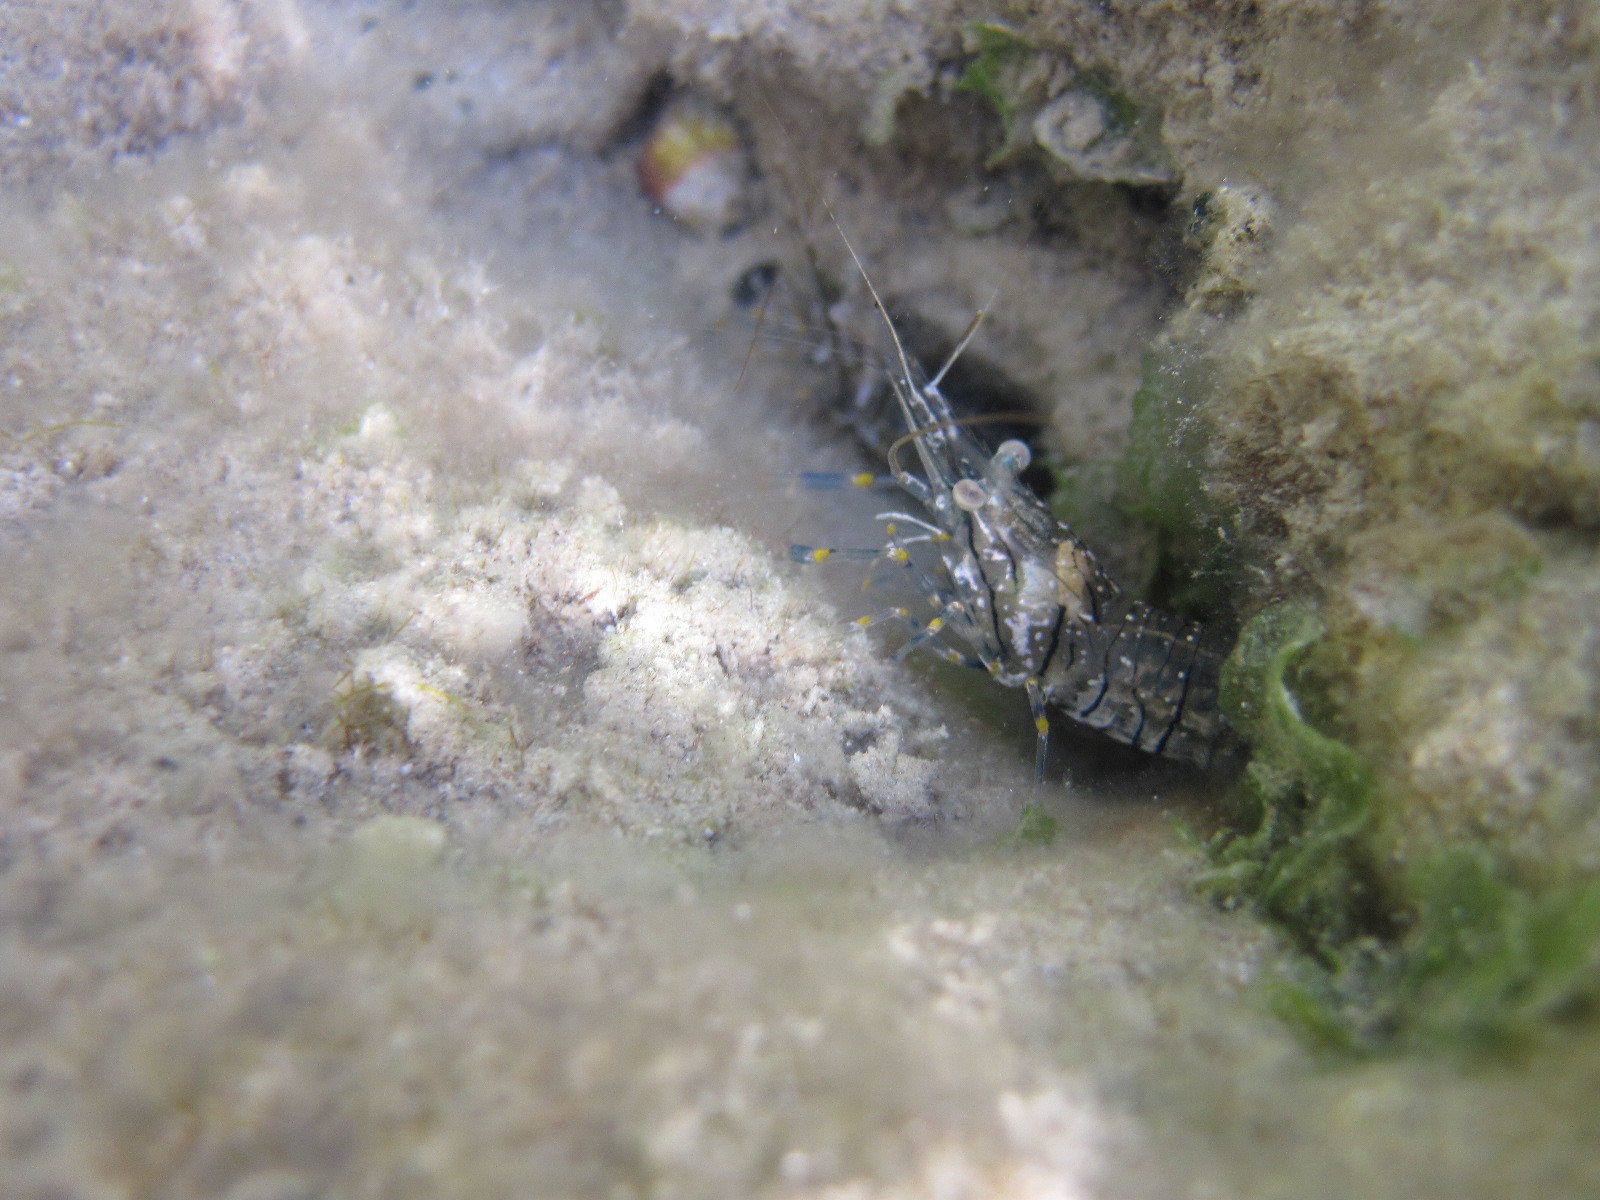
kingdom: Animalia
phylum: Arthropoda
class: Malacostraca
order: Decapoda
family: Palaemonidae
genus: Palaemon
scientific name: Palaemon elegans
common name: Grass prawm
